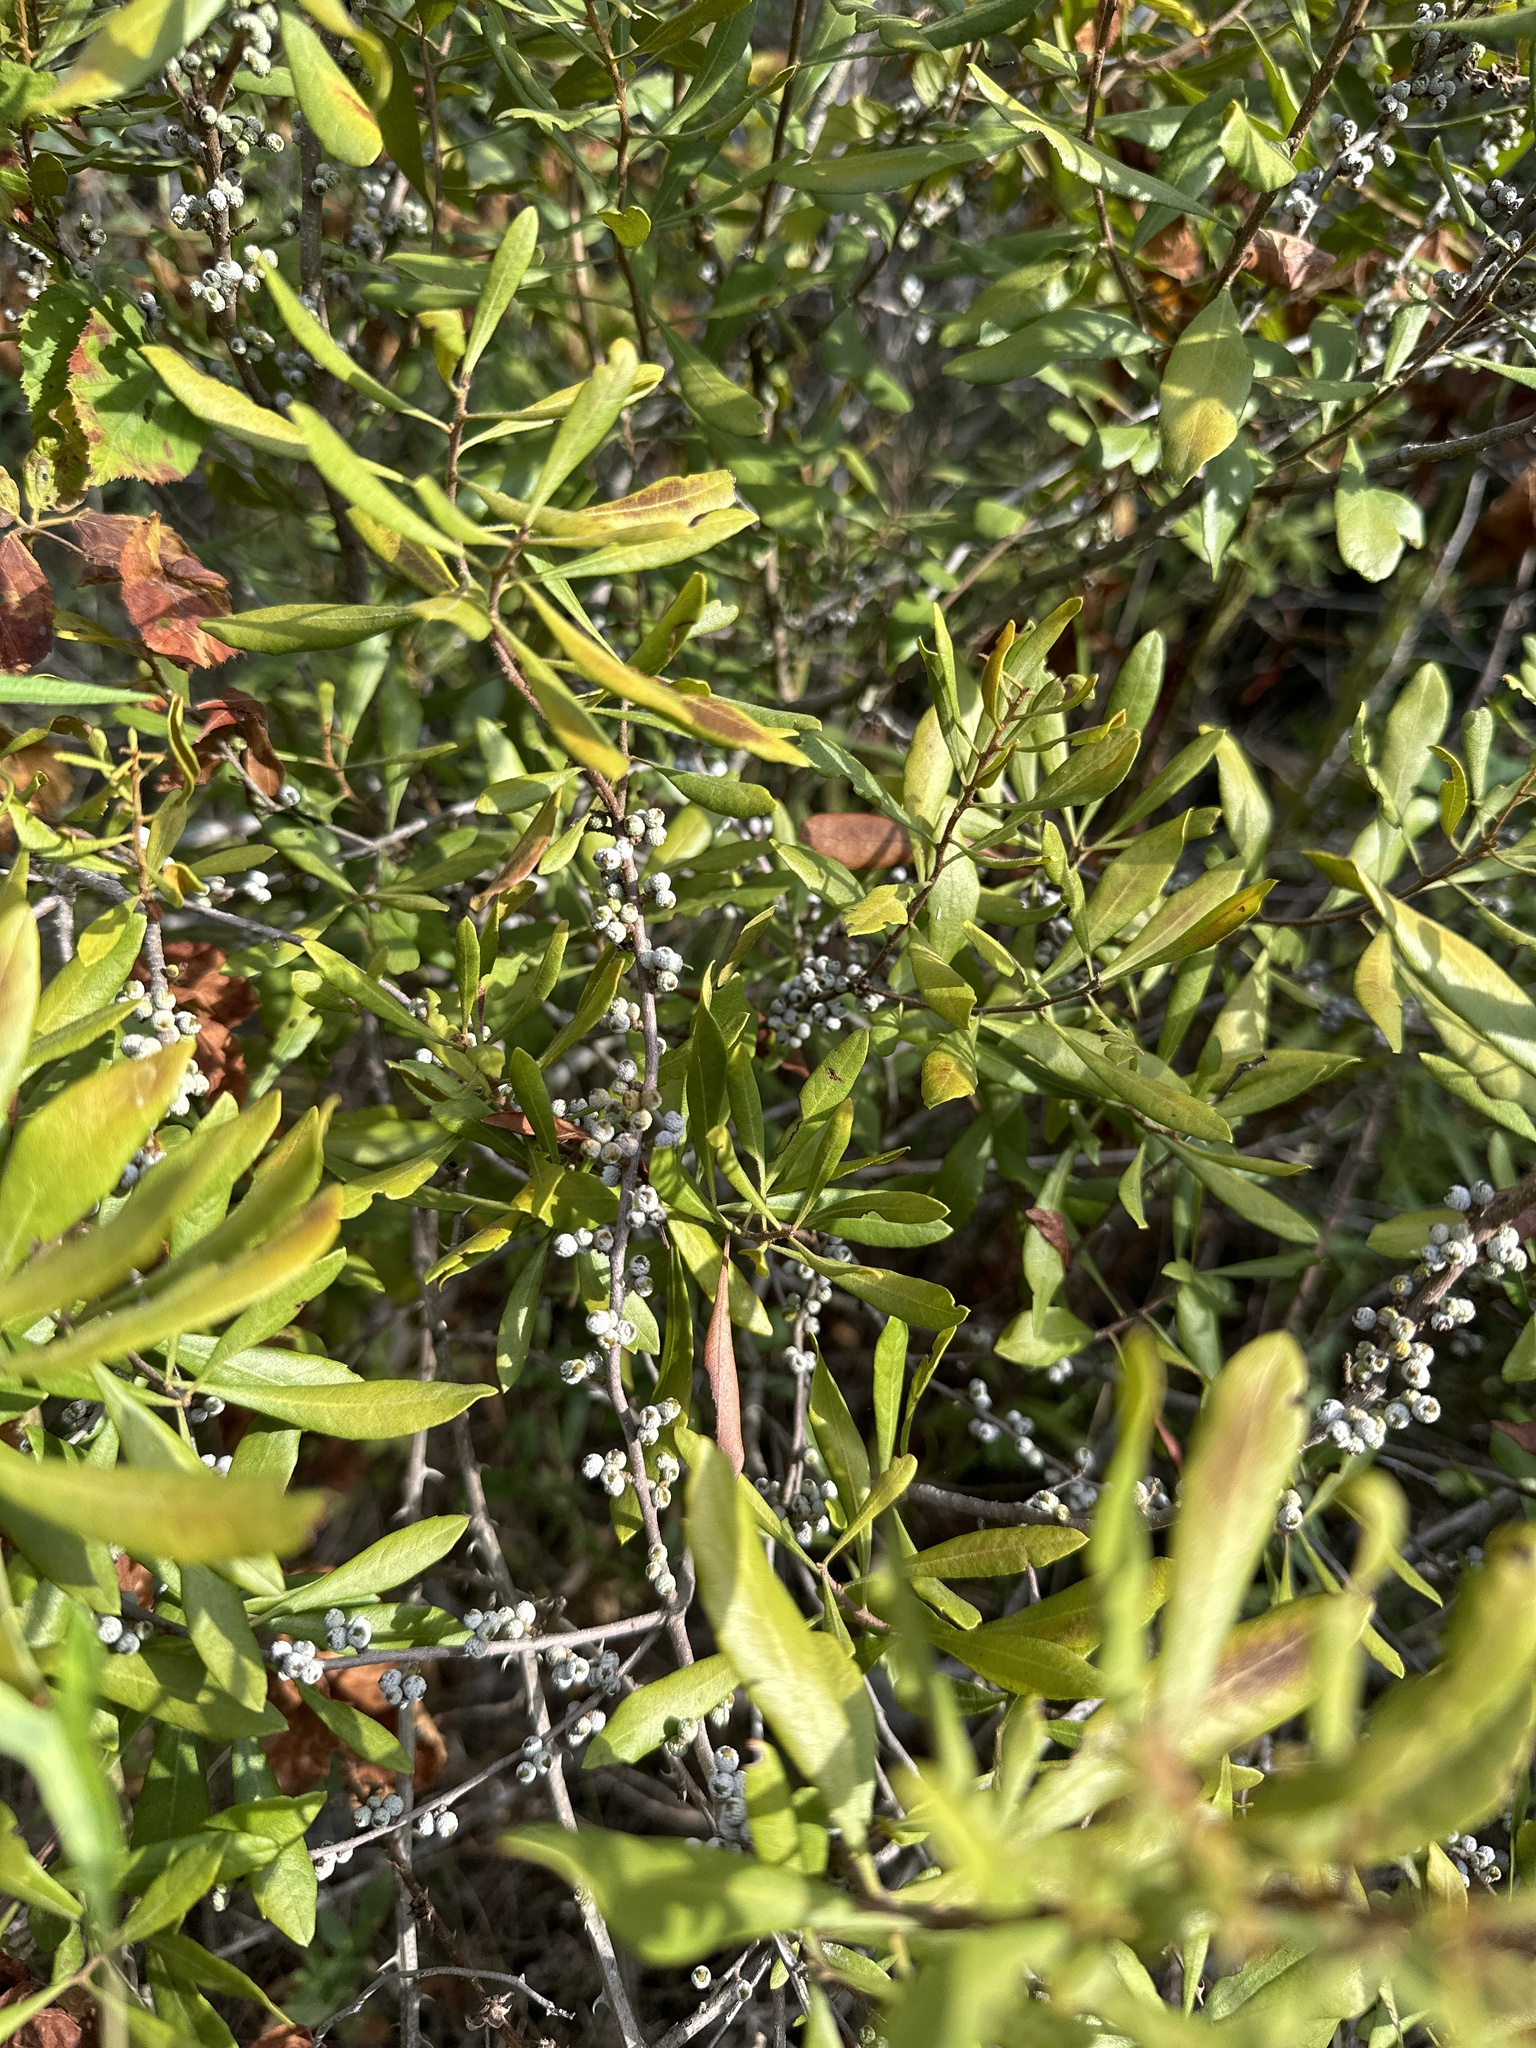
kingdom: Plantae
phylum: Tracheophyta
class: Magnoliopsida
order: Fagales
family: Myricaceae
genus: Morella
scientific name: Morella cerifera
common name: Wax myrtle
